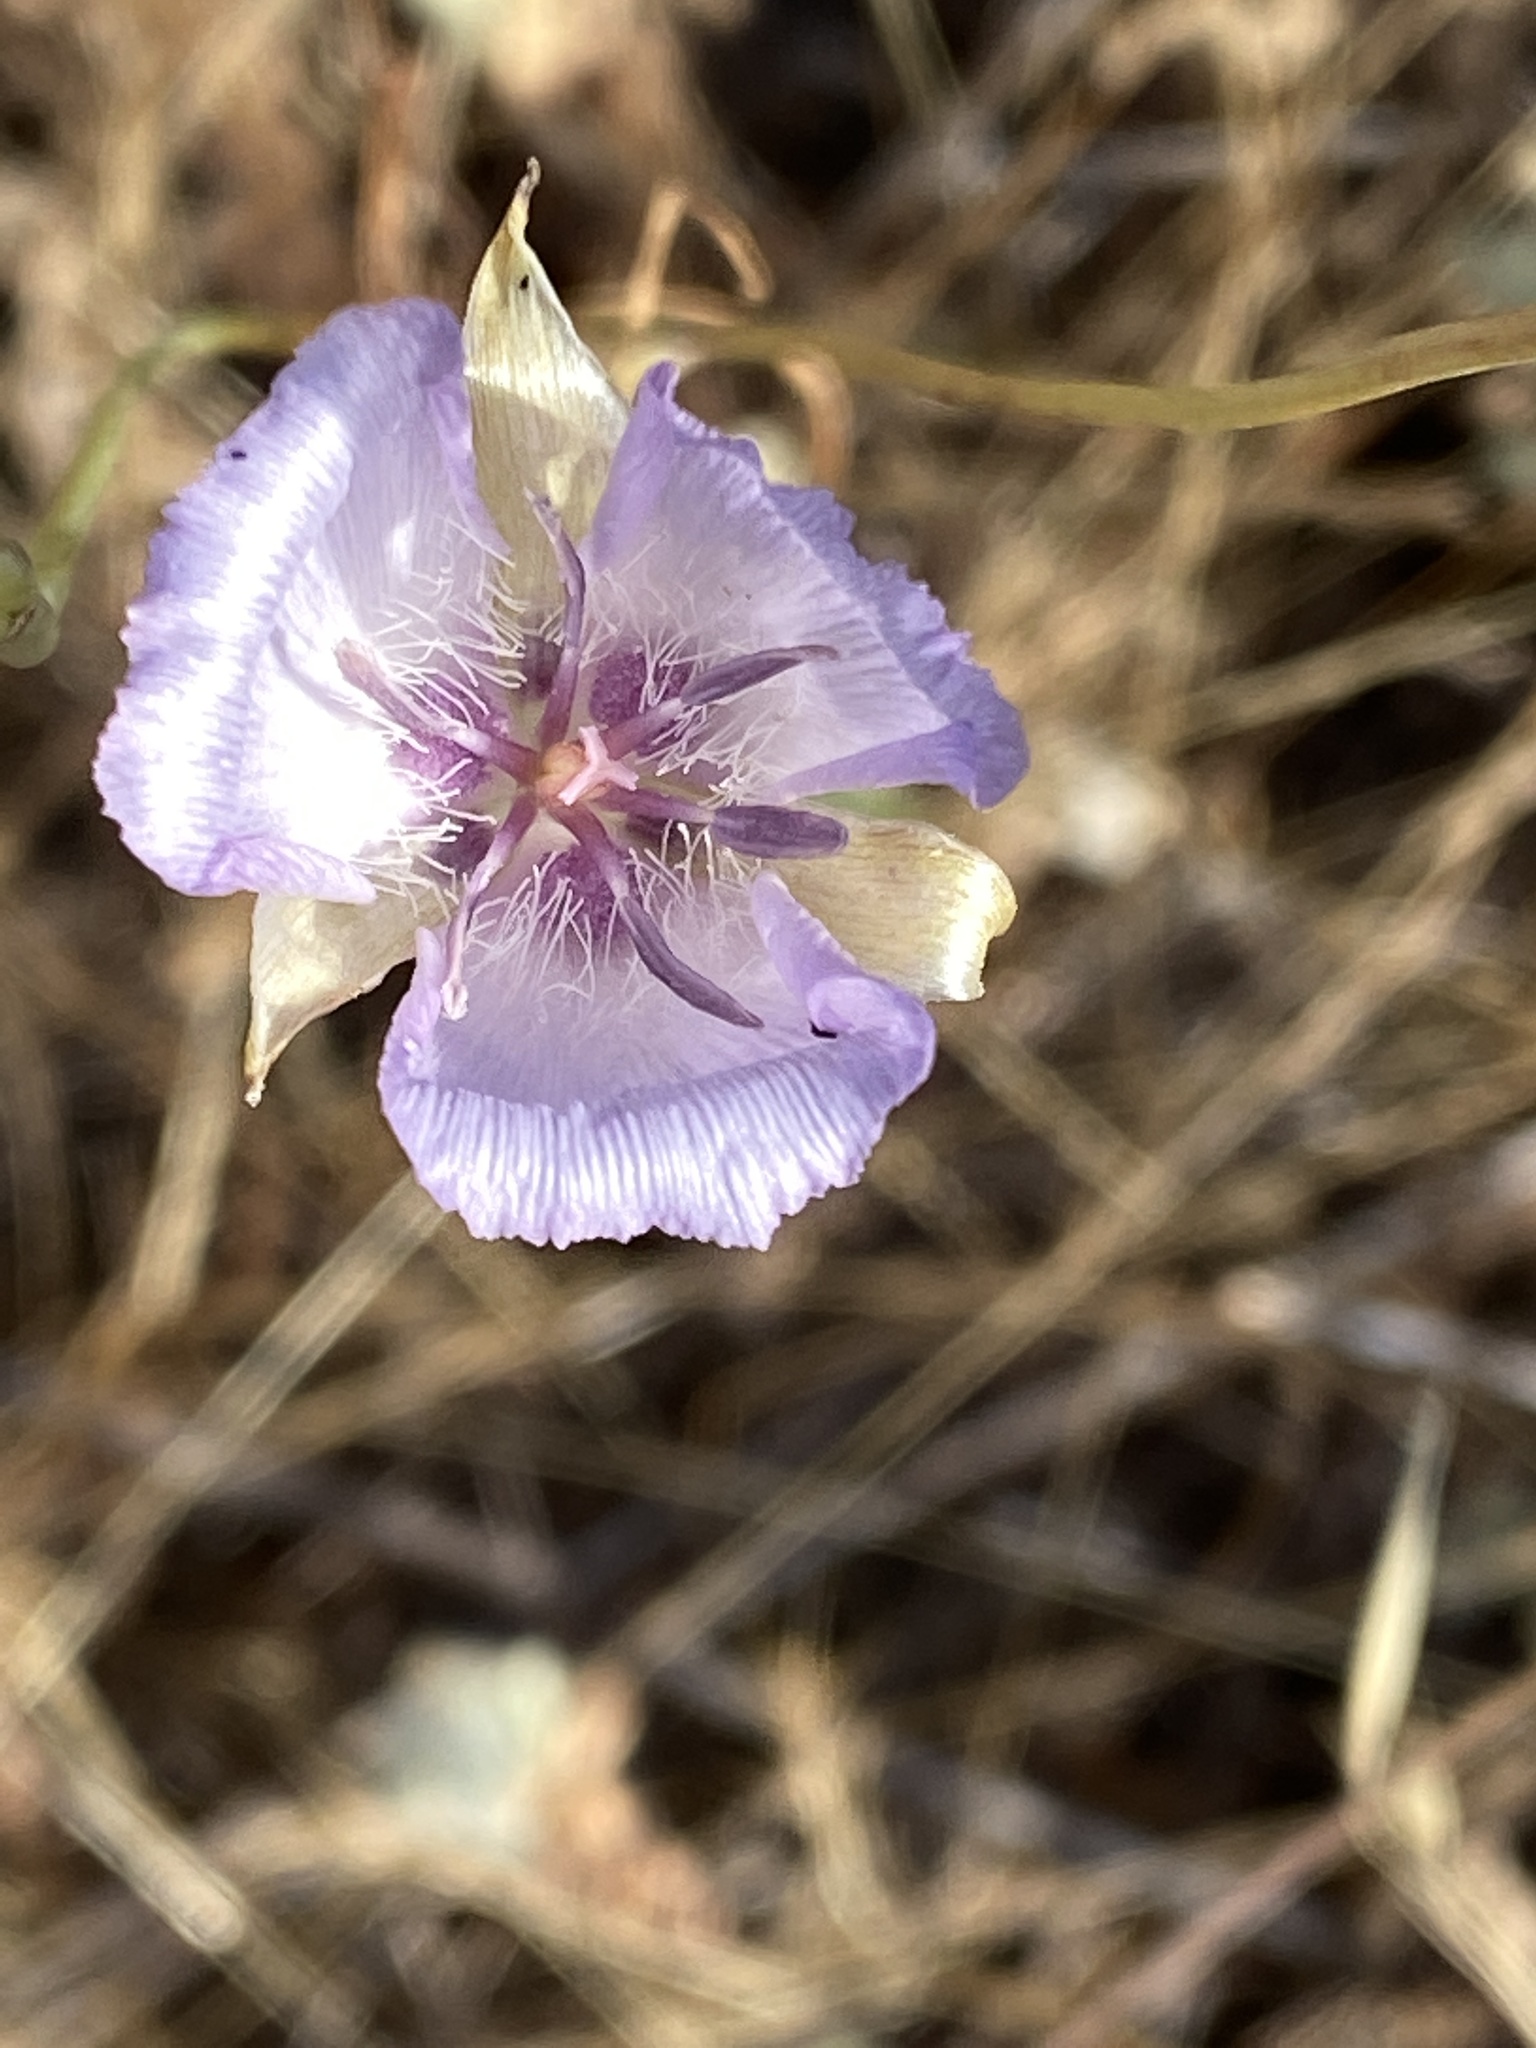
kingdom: Plantae
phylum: Tracheophyta
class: Liliopsida
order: Liliales
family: Liliaceae
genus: Calochortus
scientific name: Calochortus splendens
